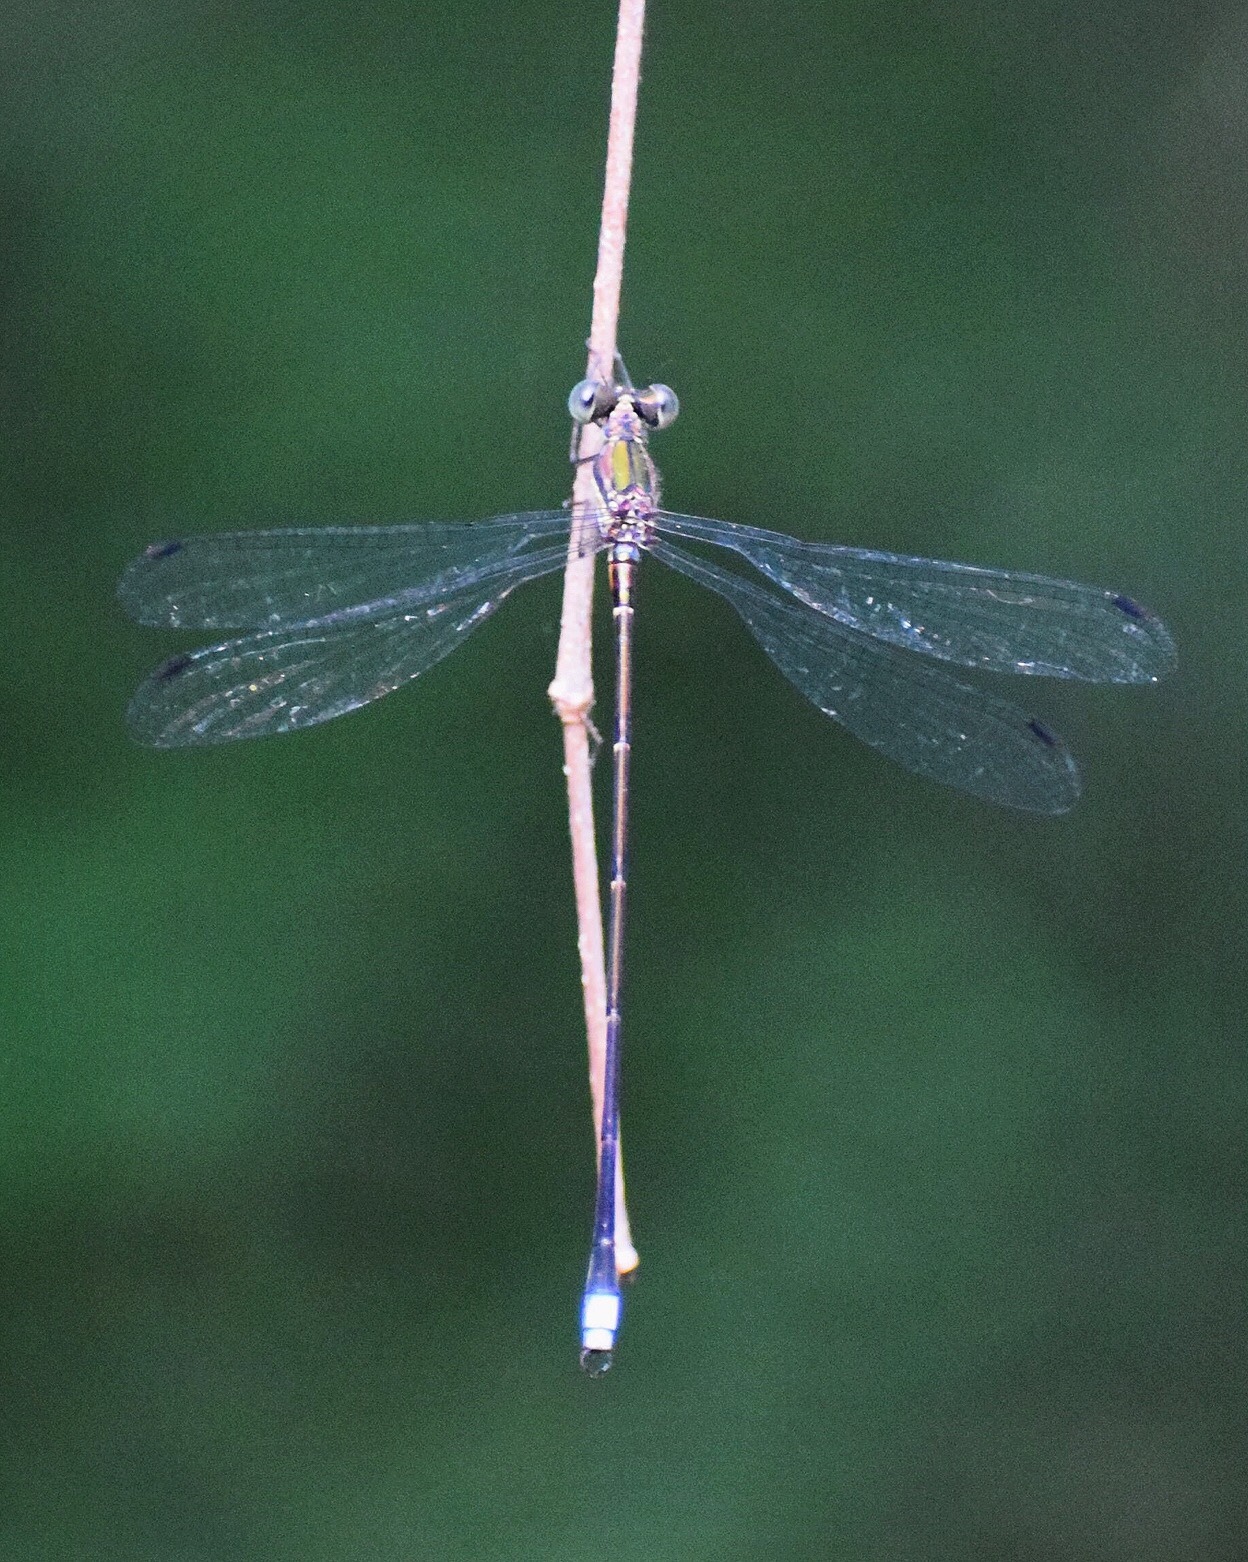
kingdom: Animalia
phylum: Arthropoda
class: Insecta
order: Odonata
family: Synlestidae
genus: Chlorolestes
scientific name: Chlorolestes tessellatus
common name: Forest malachite
